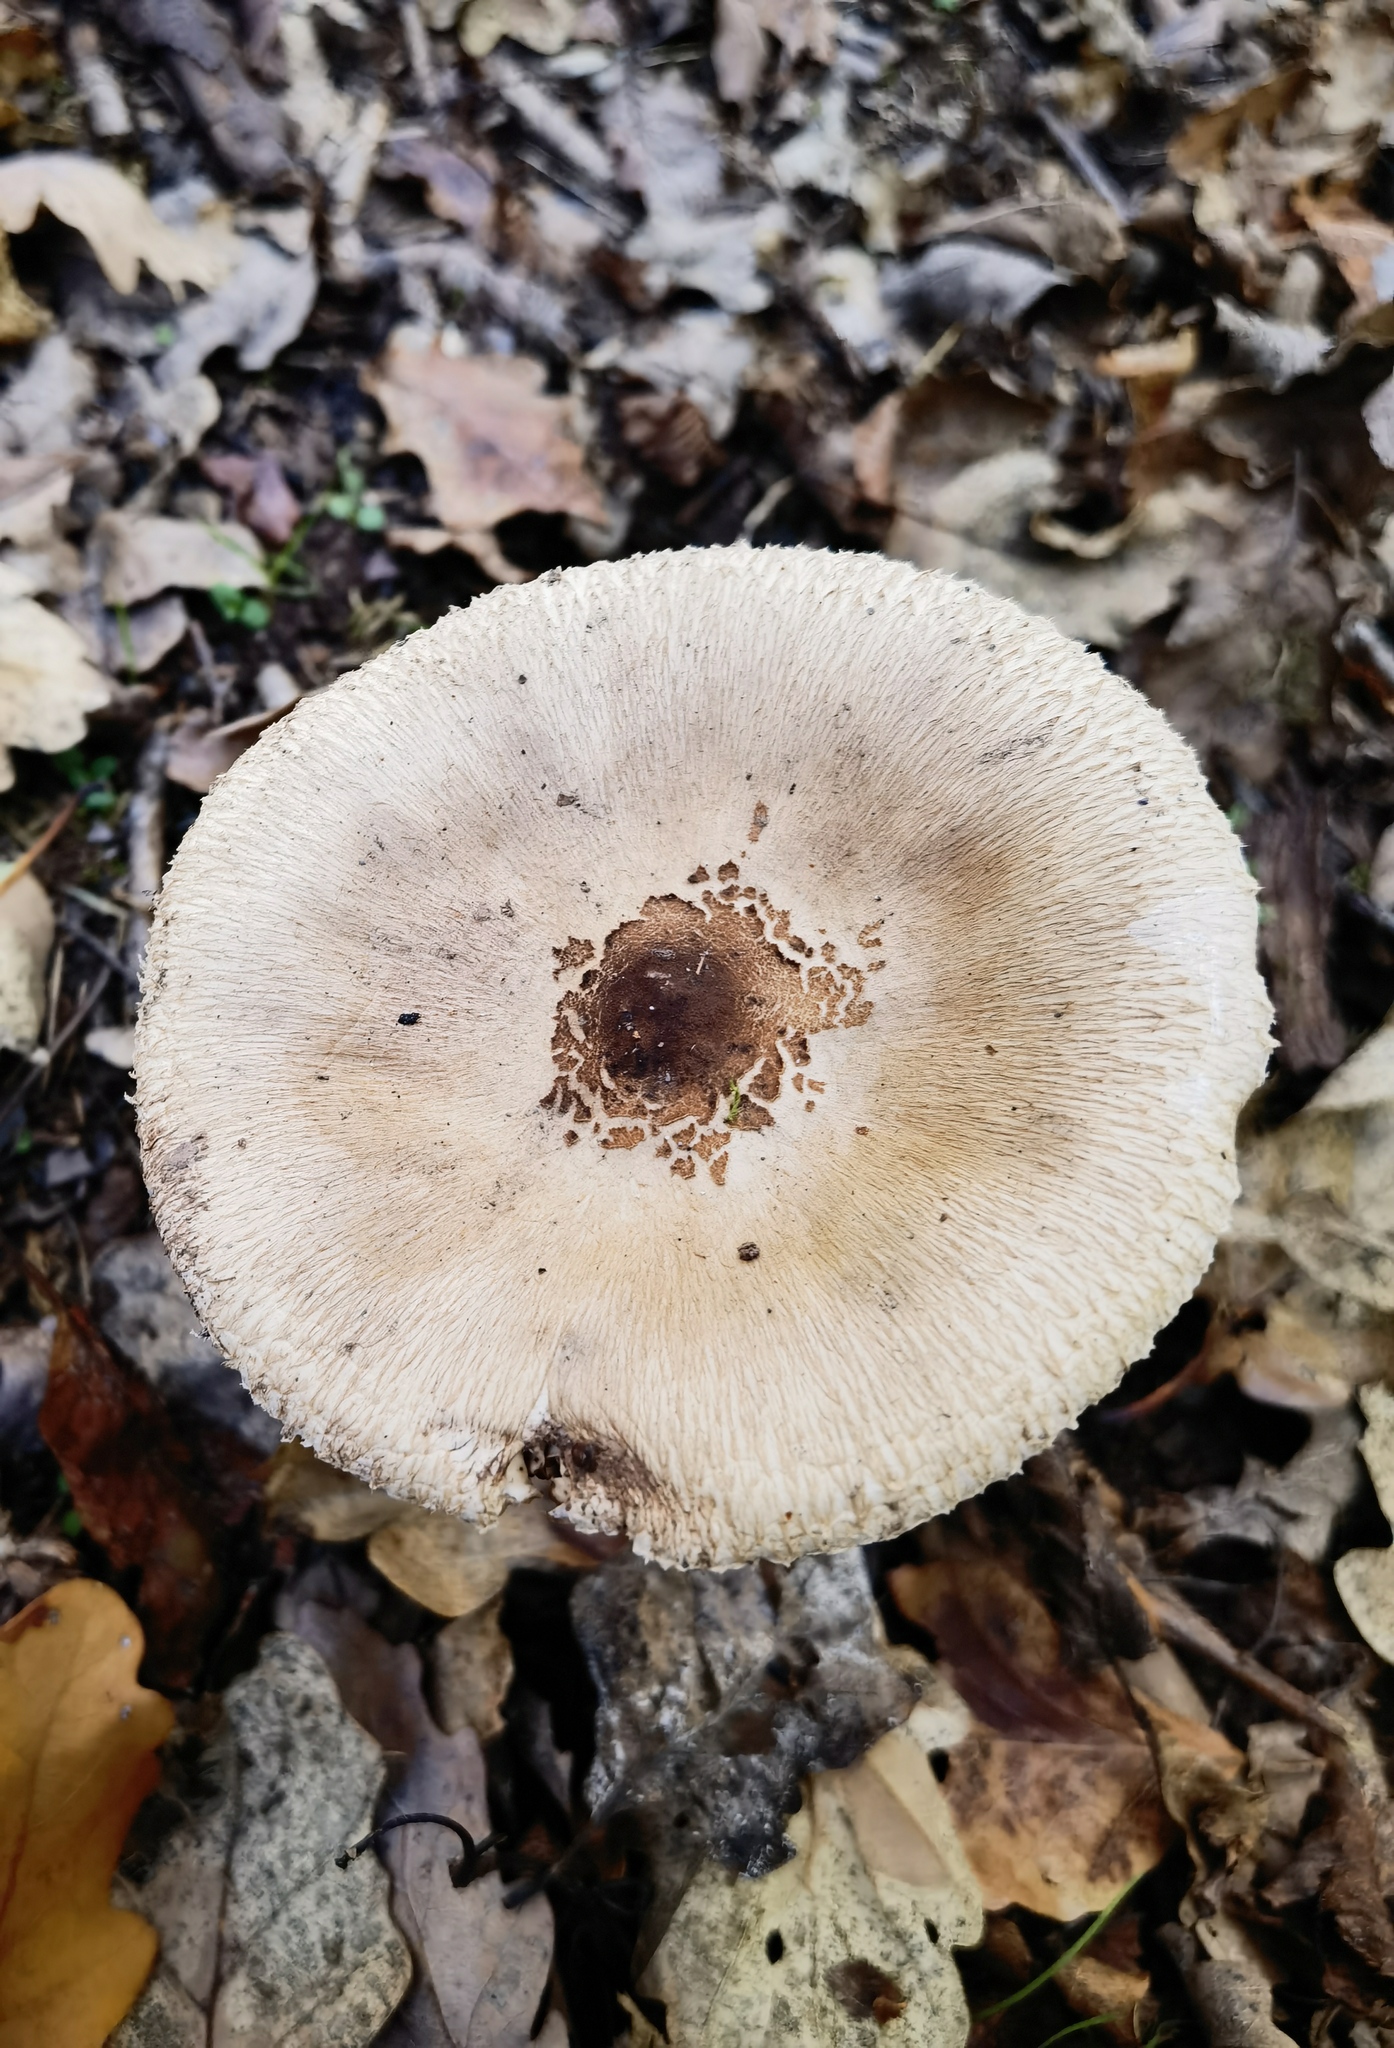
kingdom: Fungi
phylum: Basidiomycota
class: Agaricomycetes
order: Agaricales
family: Agaricaceae
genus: Macrolepiota
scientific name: Macrolepiota procera
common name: Parasol
